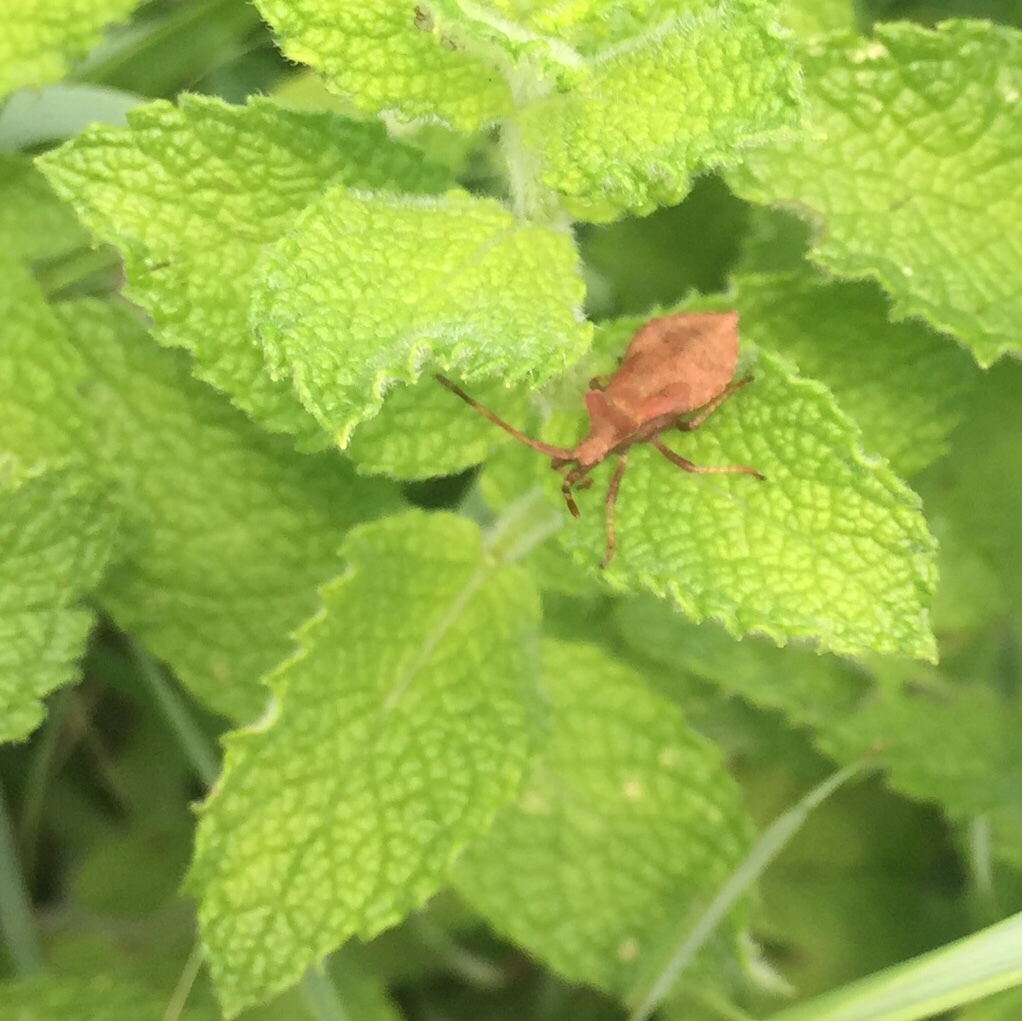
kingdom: Animalia
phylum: Arthropoda
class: Insecta
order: Hemiptera
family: Coreidae
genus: Coreus
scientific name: Coreus marginatus
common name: Dock bug
